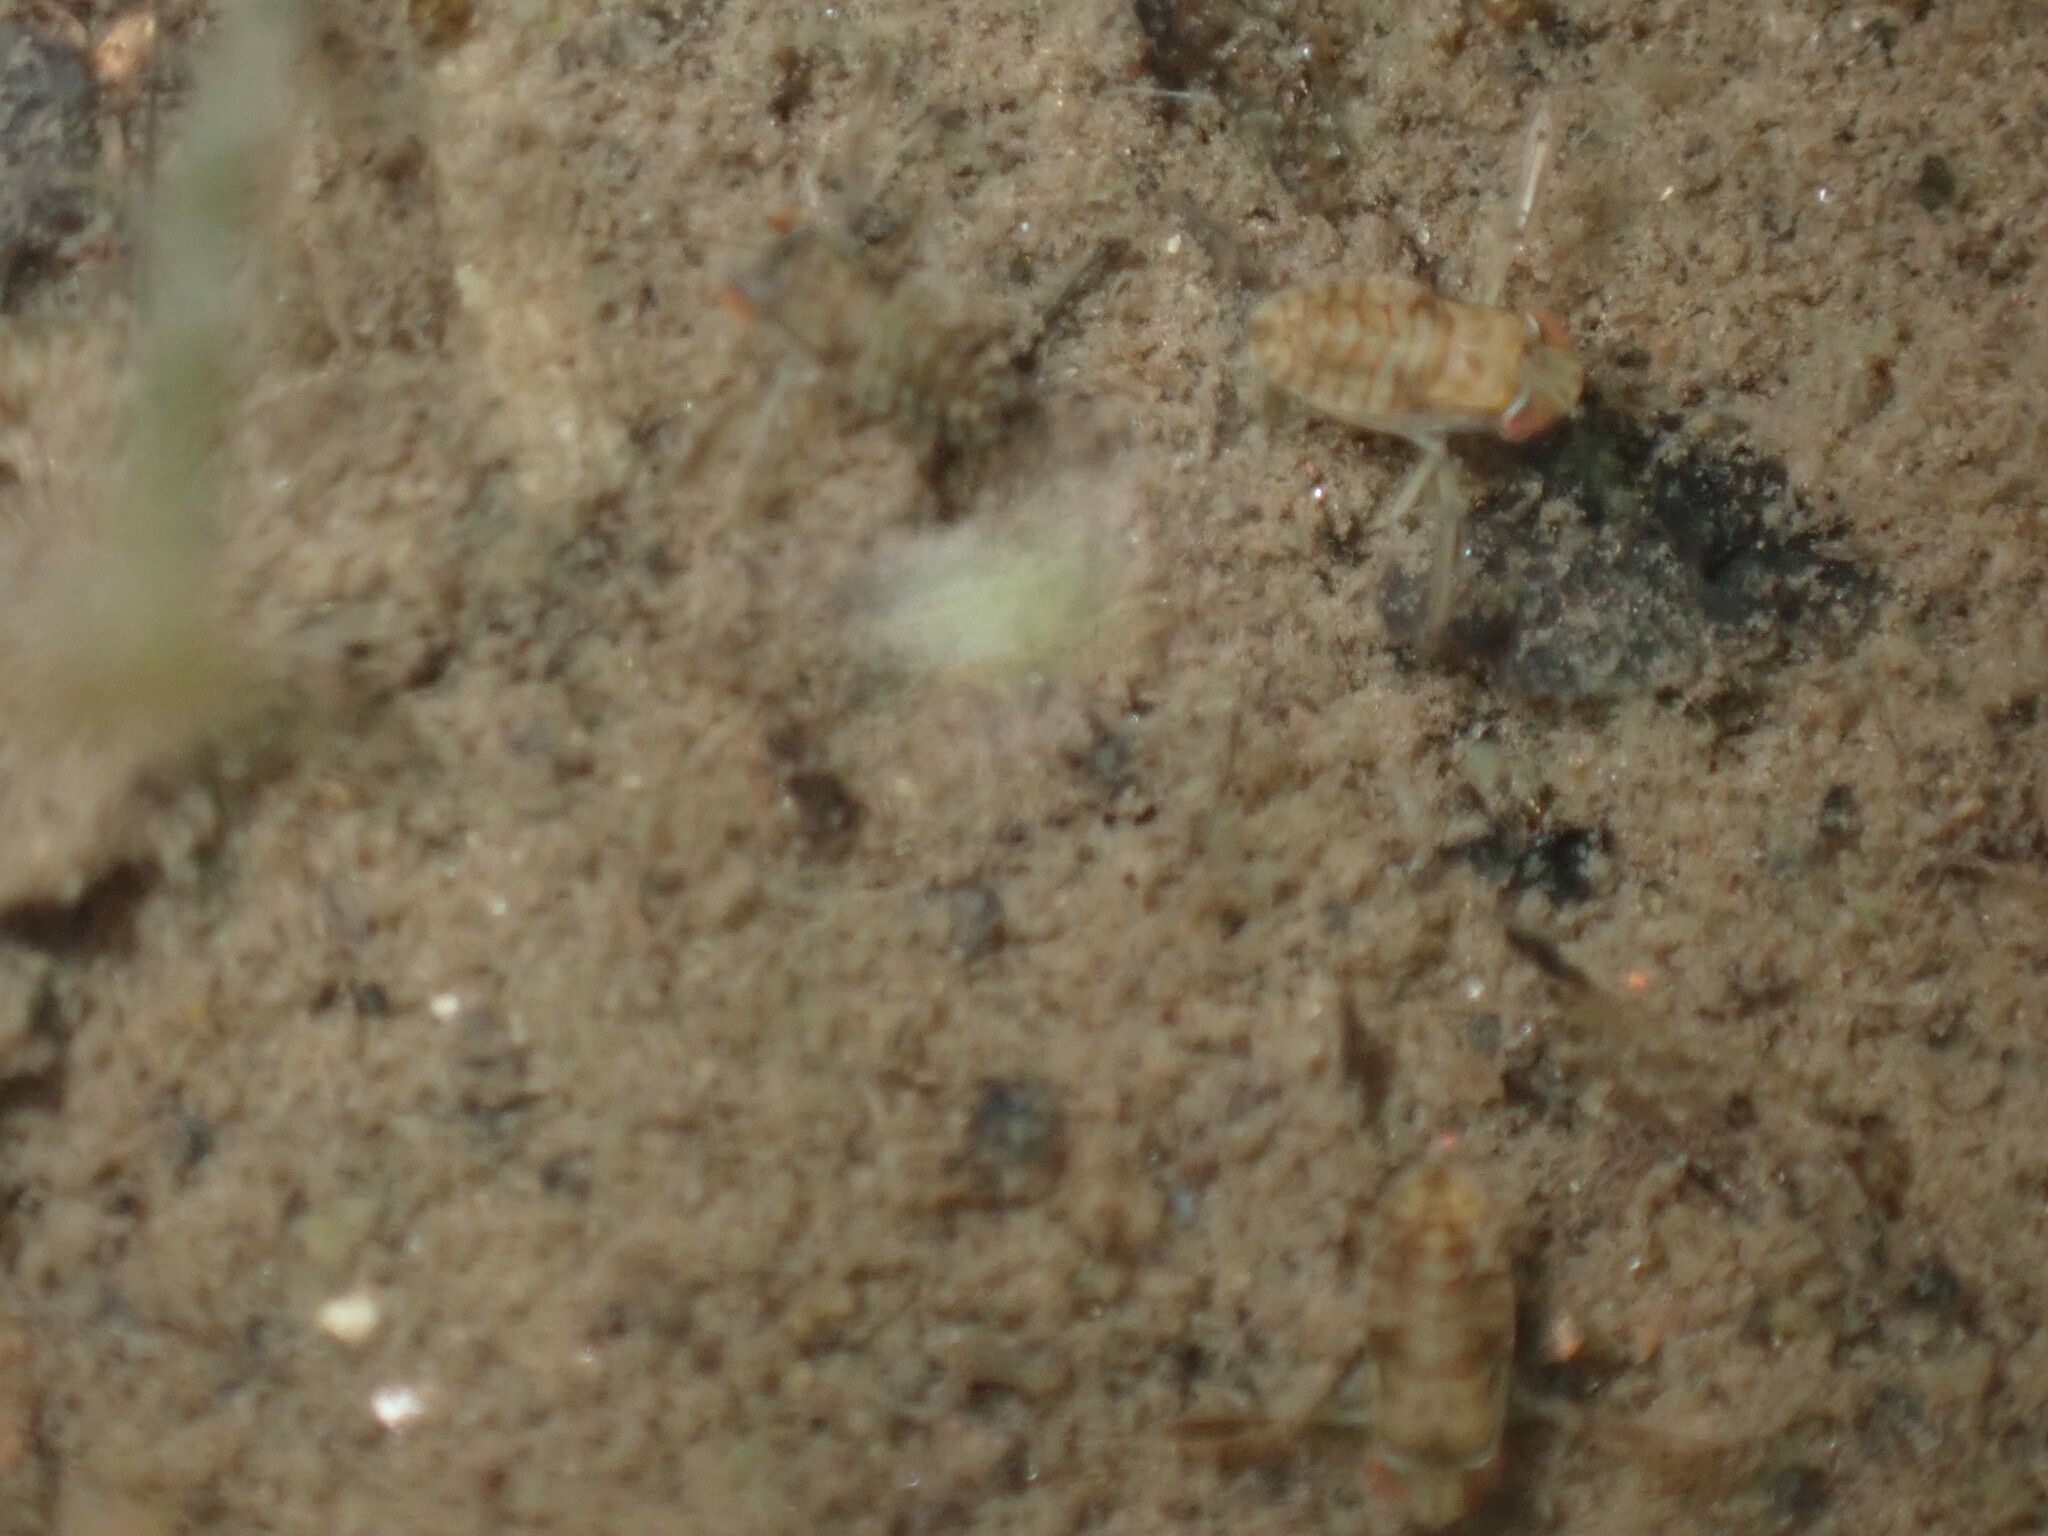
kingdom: Animalia
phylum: Arthropoda
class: Insecta
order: Hemiptera
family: Corixidae
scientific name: Corixidae
